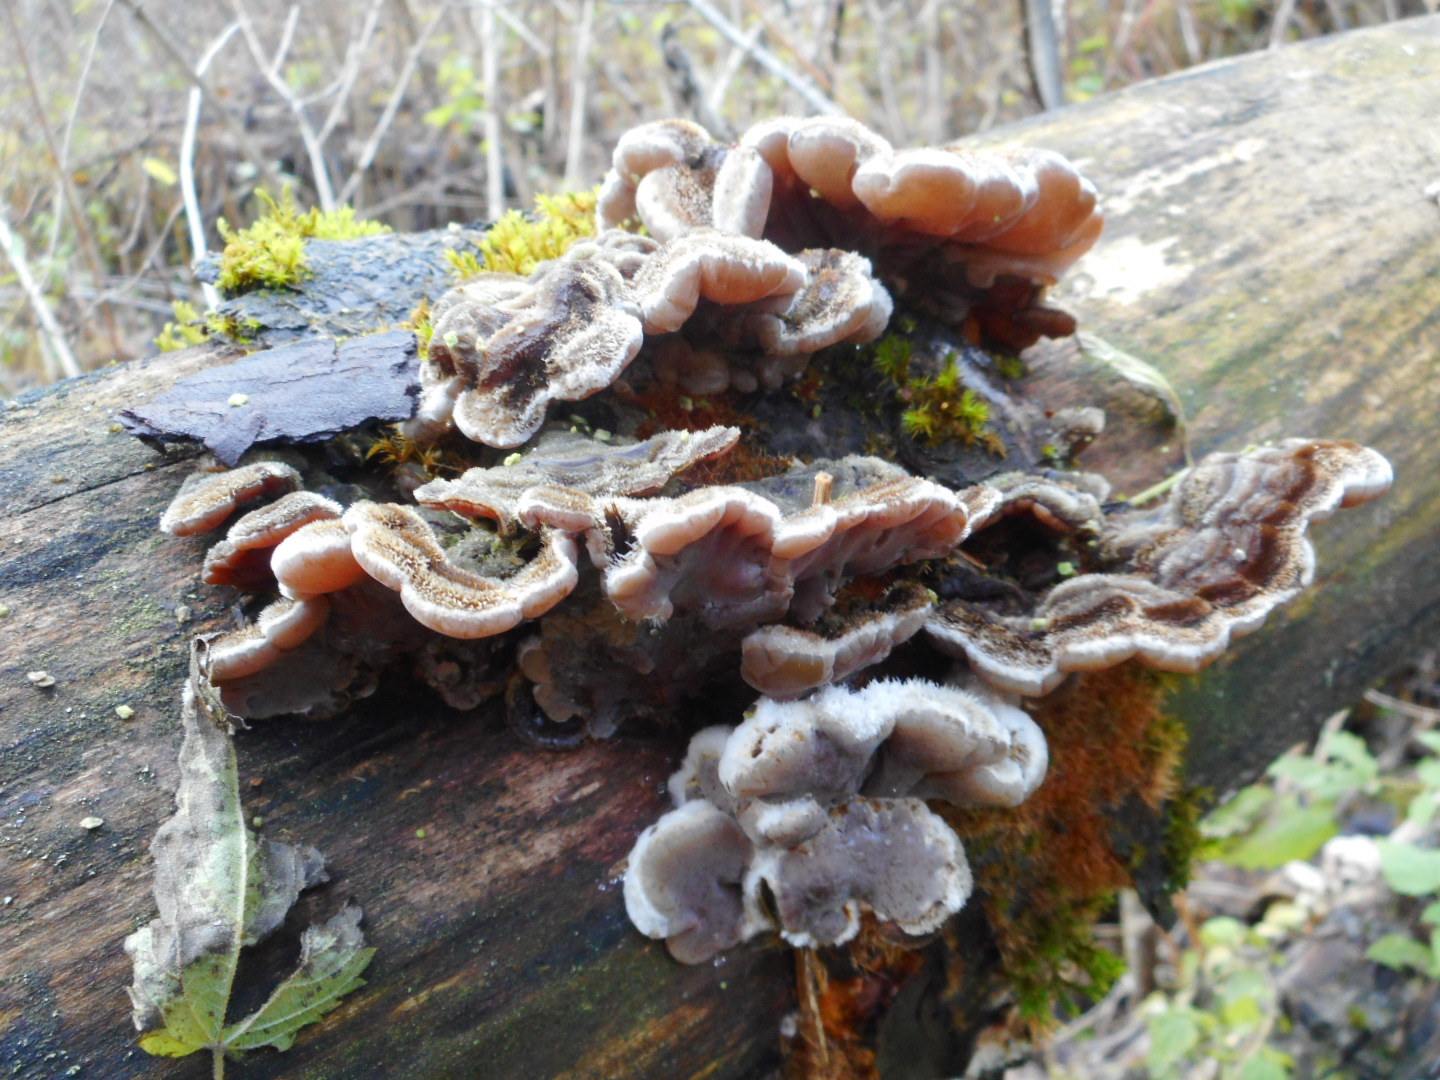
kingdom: Fungi
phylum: Basidiomycota
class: Agaricomycetes
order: Auriculariales
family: Auriculariaceae
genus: Auricularia
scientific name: Auricularia mesenterica
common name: Tripe fungus
